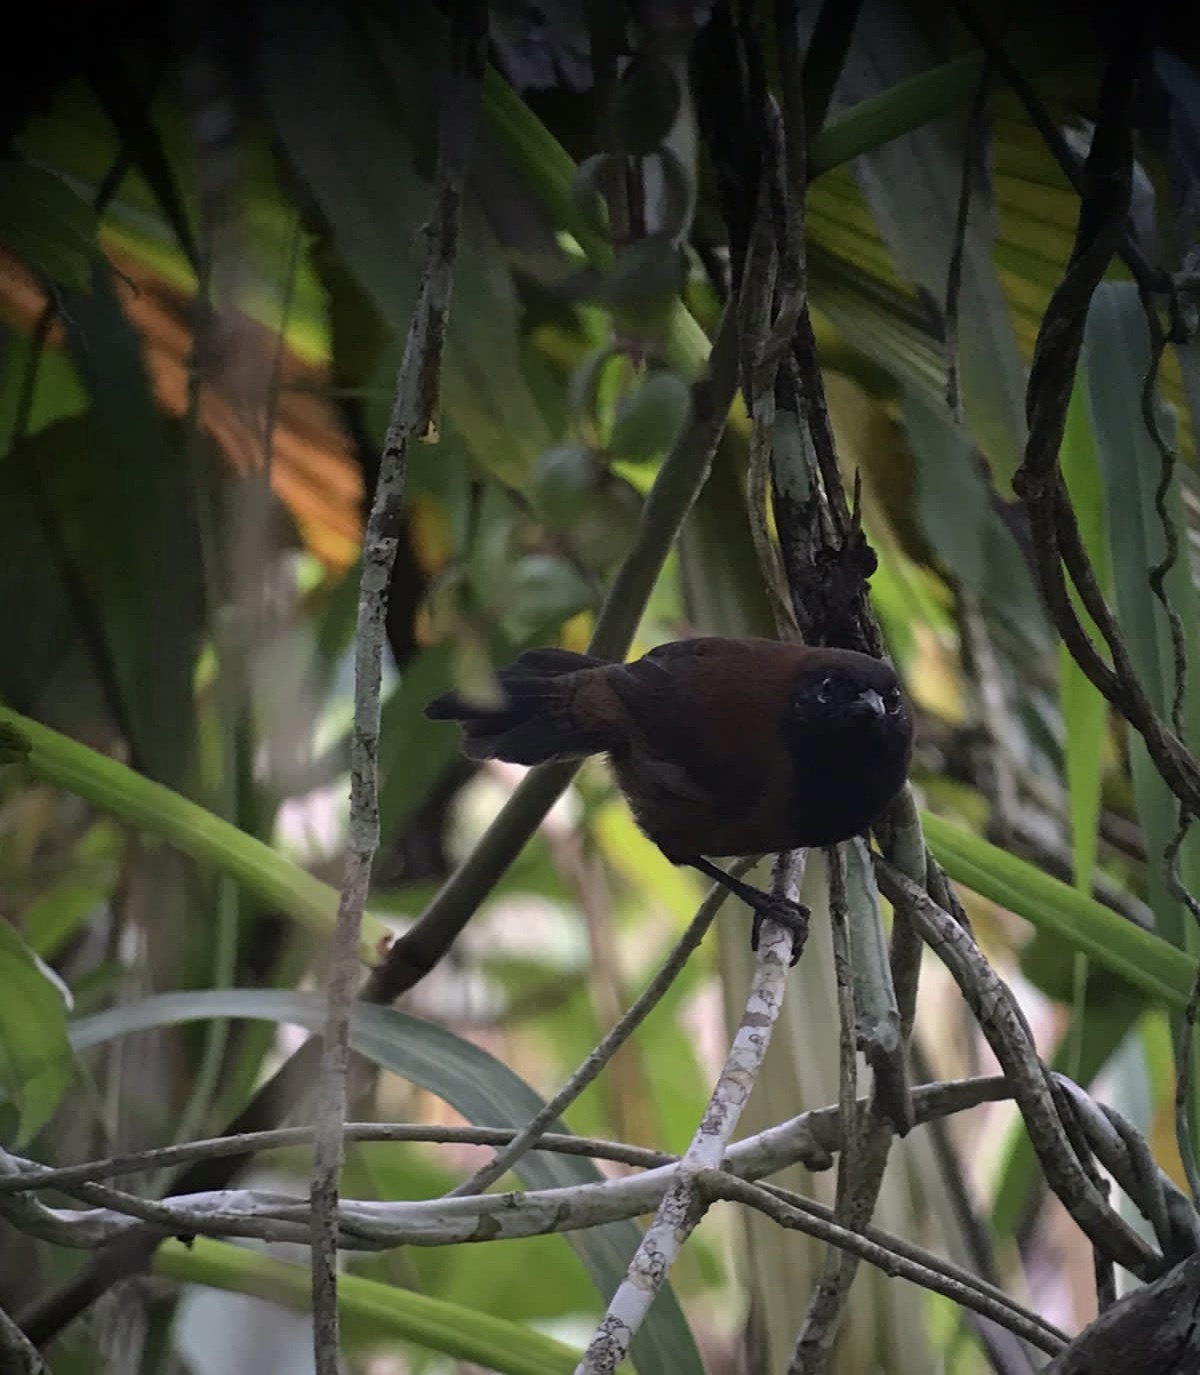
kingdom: Animalia
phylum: Chordata
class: Aves
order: Passeriformes
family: Troglodytidae
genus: Pheugopedius
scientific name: Pheugopedius atrogularis
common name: Black-throated wren
